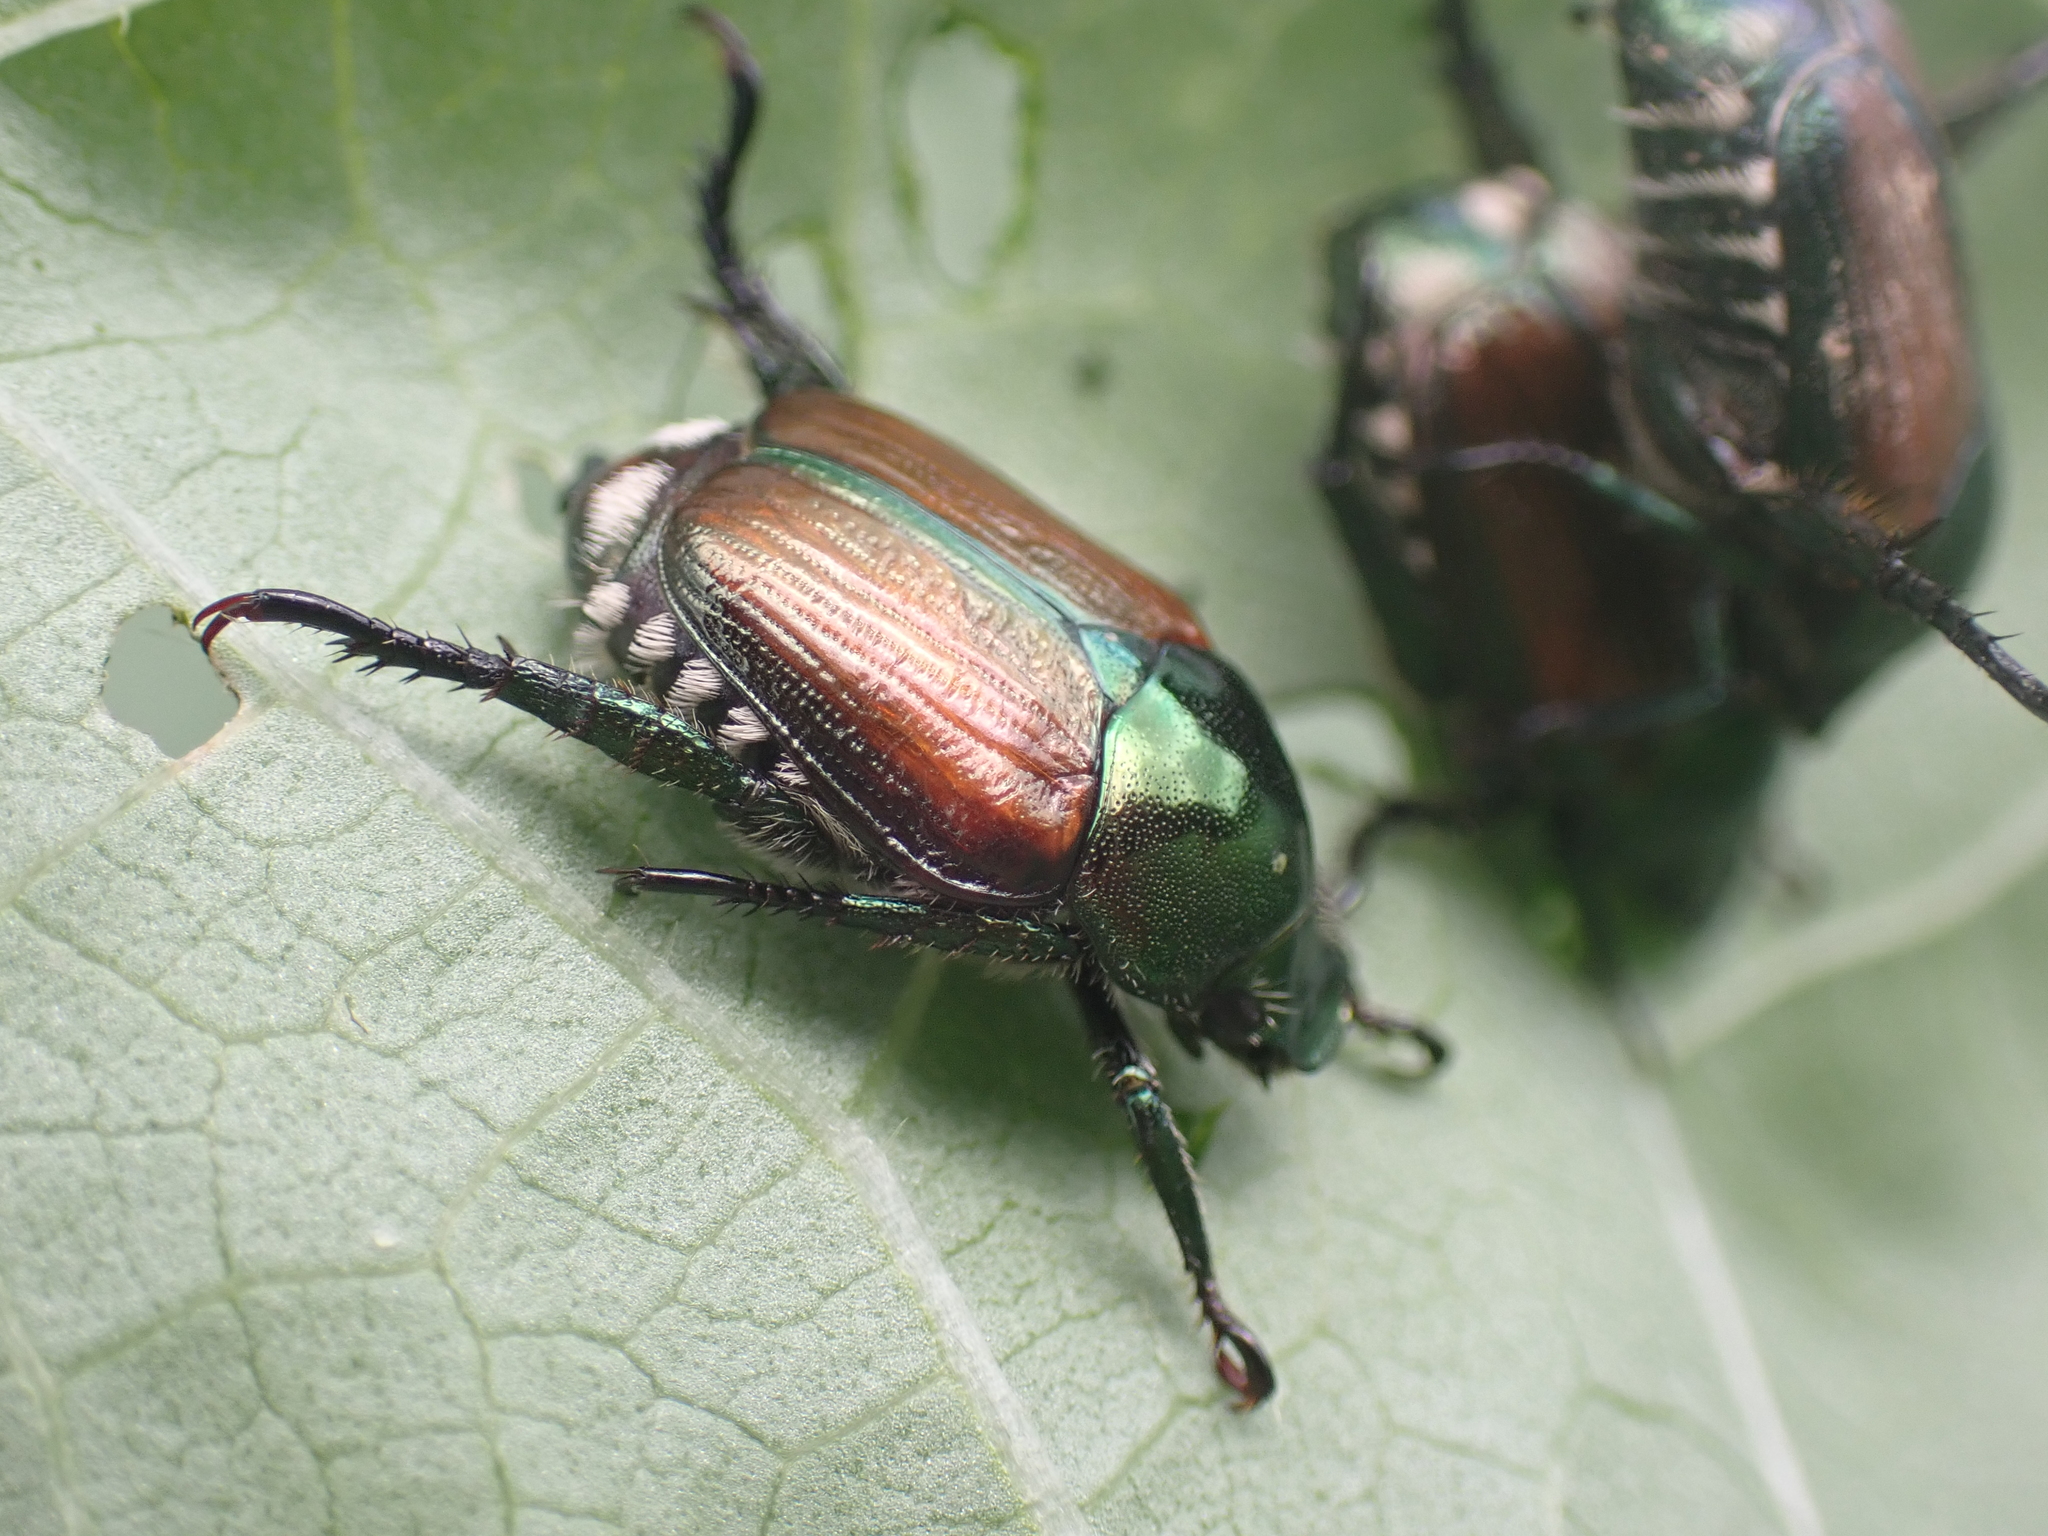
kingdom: Animalia
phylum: Arthropoda
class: Insecta
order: Coleoptera
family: Scarabaeidae
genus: Popillia
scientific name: Popillia japonica
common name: Japanese beetle
